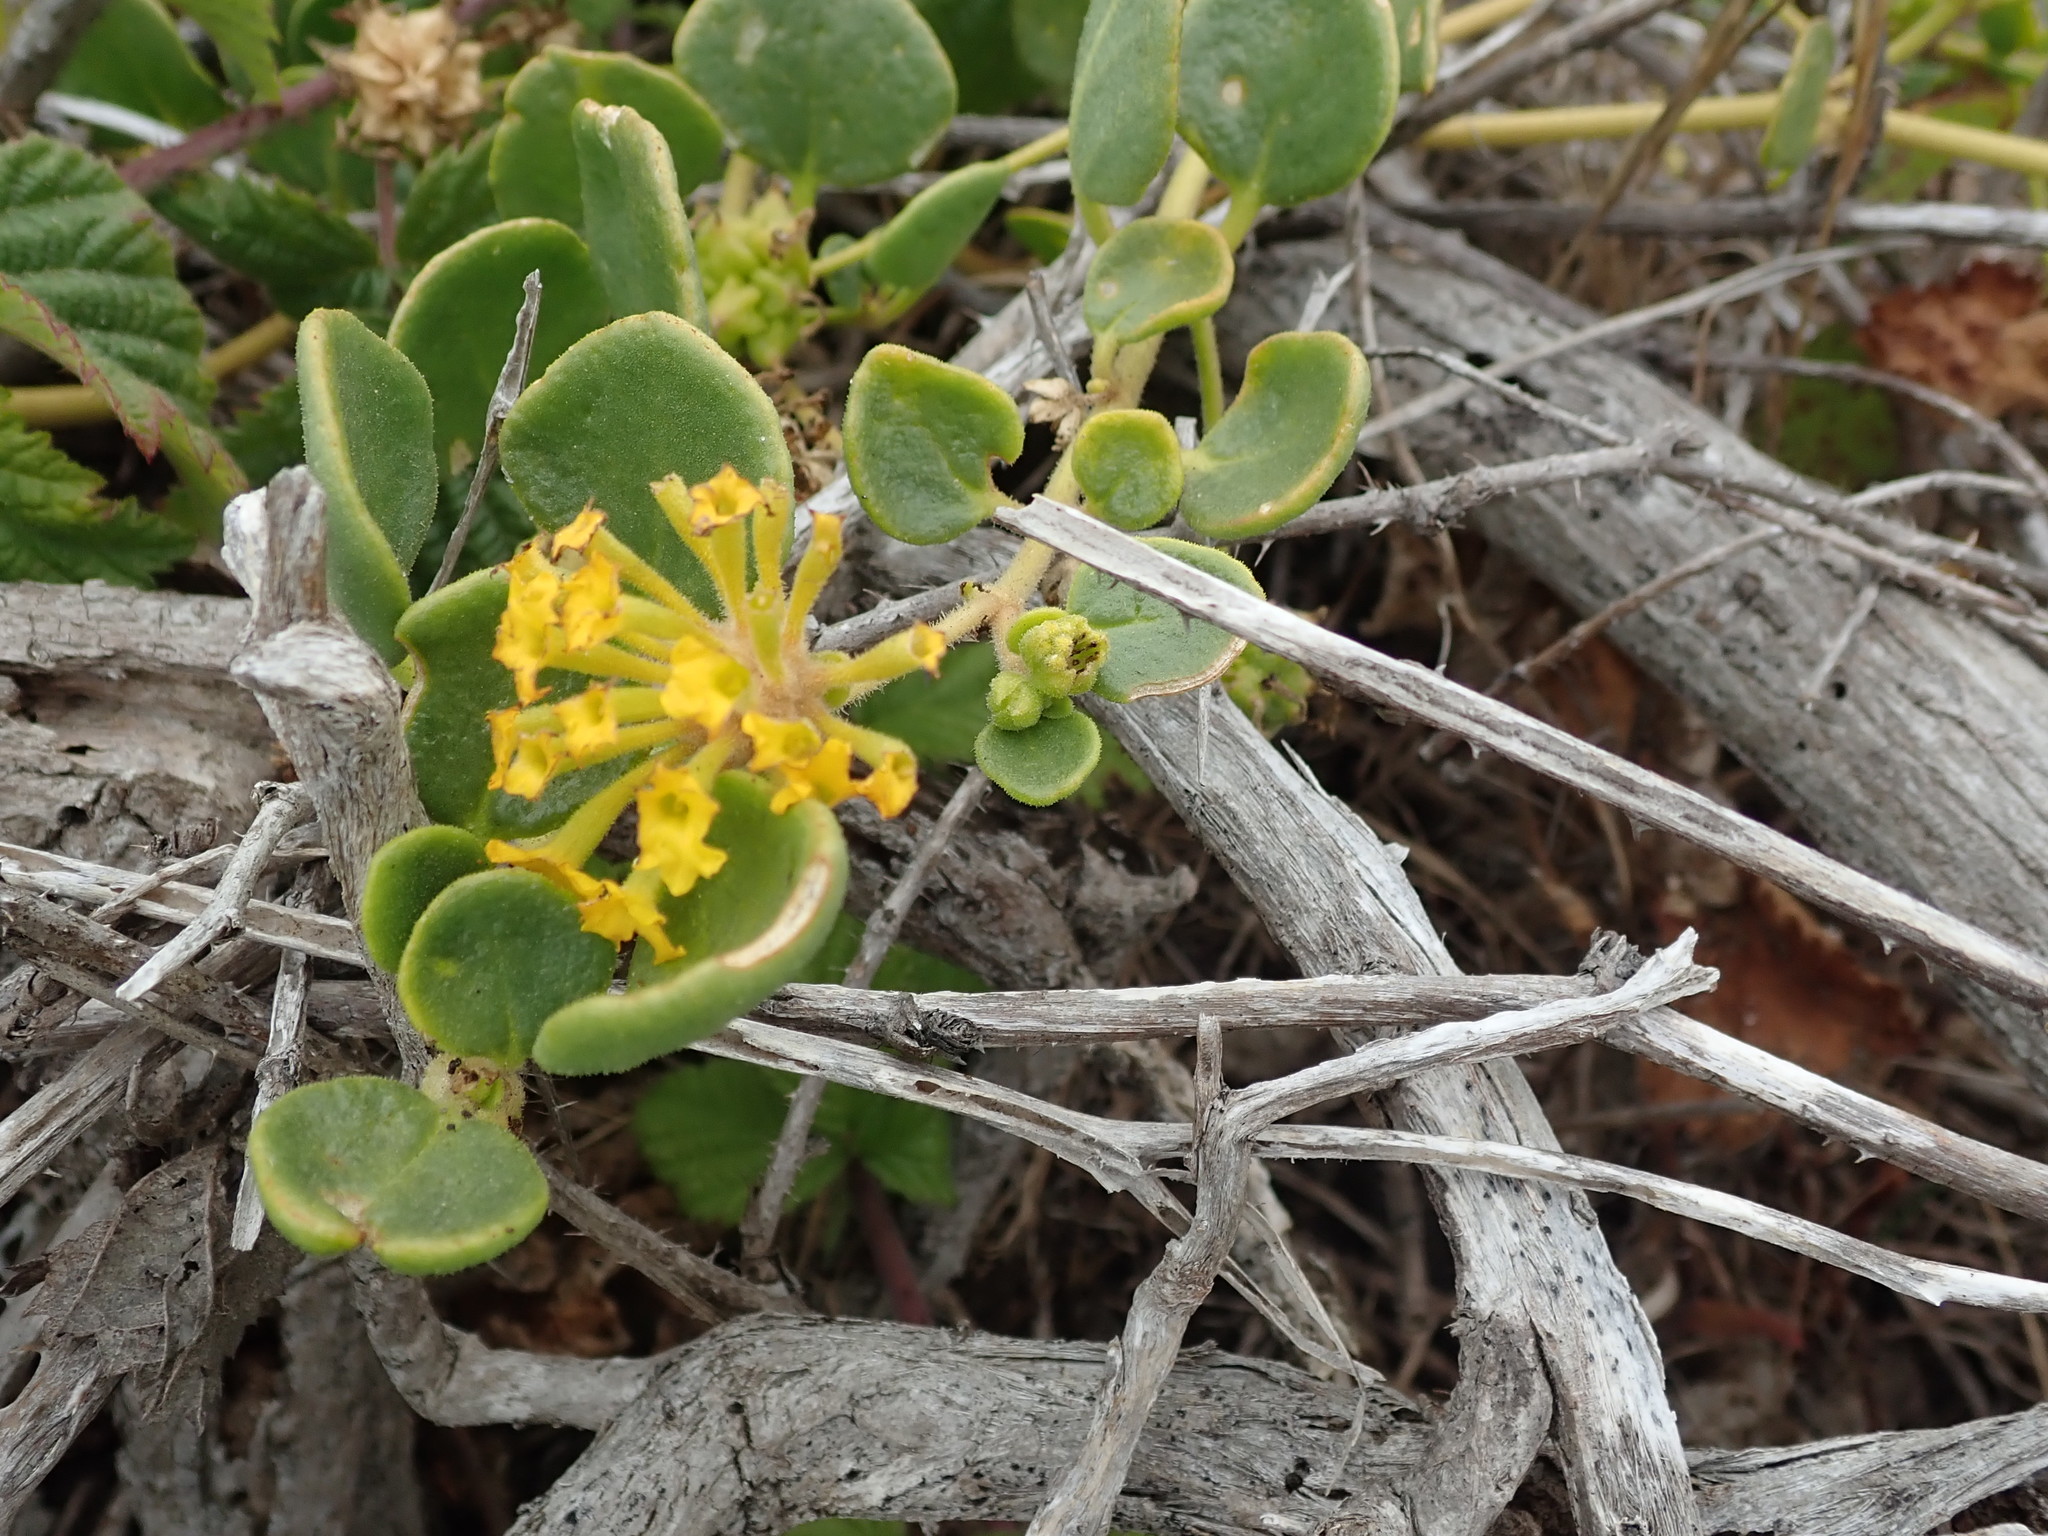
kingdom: Plantae
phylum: Tracheophyta
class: Magnoliopsida
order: Caryophyllales
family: Nyctaginaceae
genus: Abronia
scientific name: Abronia latifolia
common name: Yellow sand-verbena
